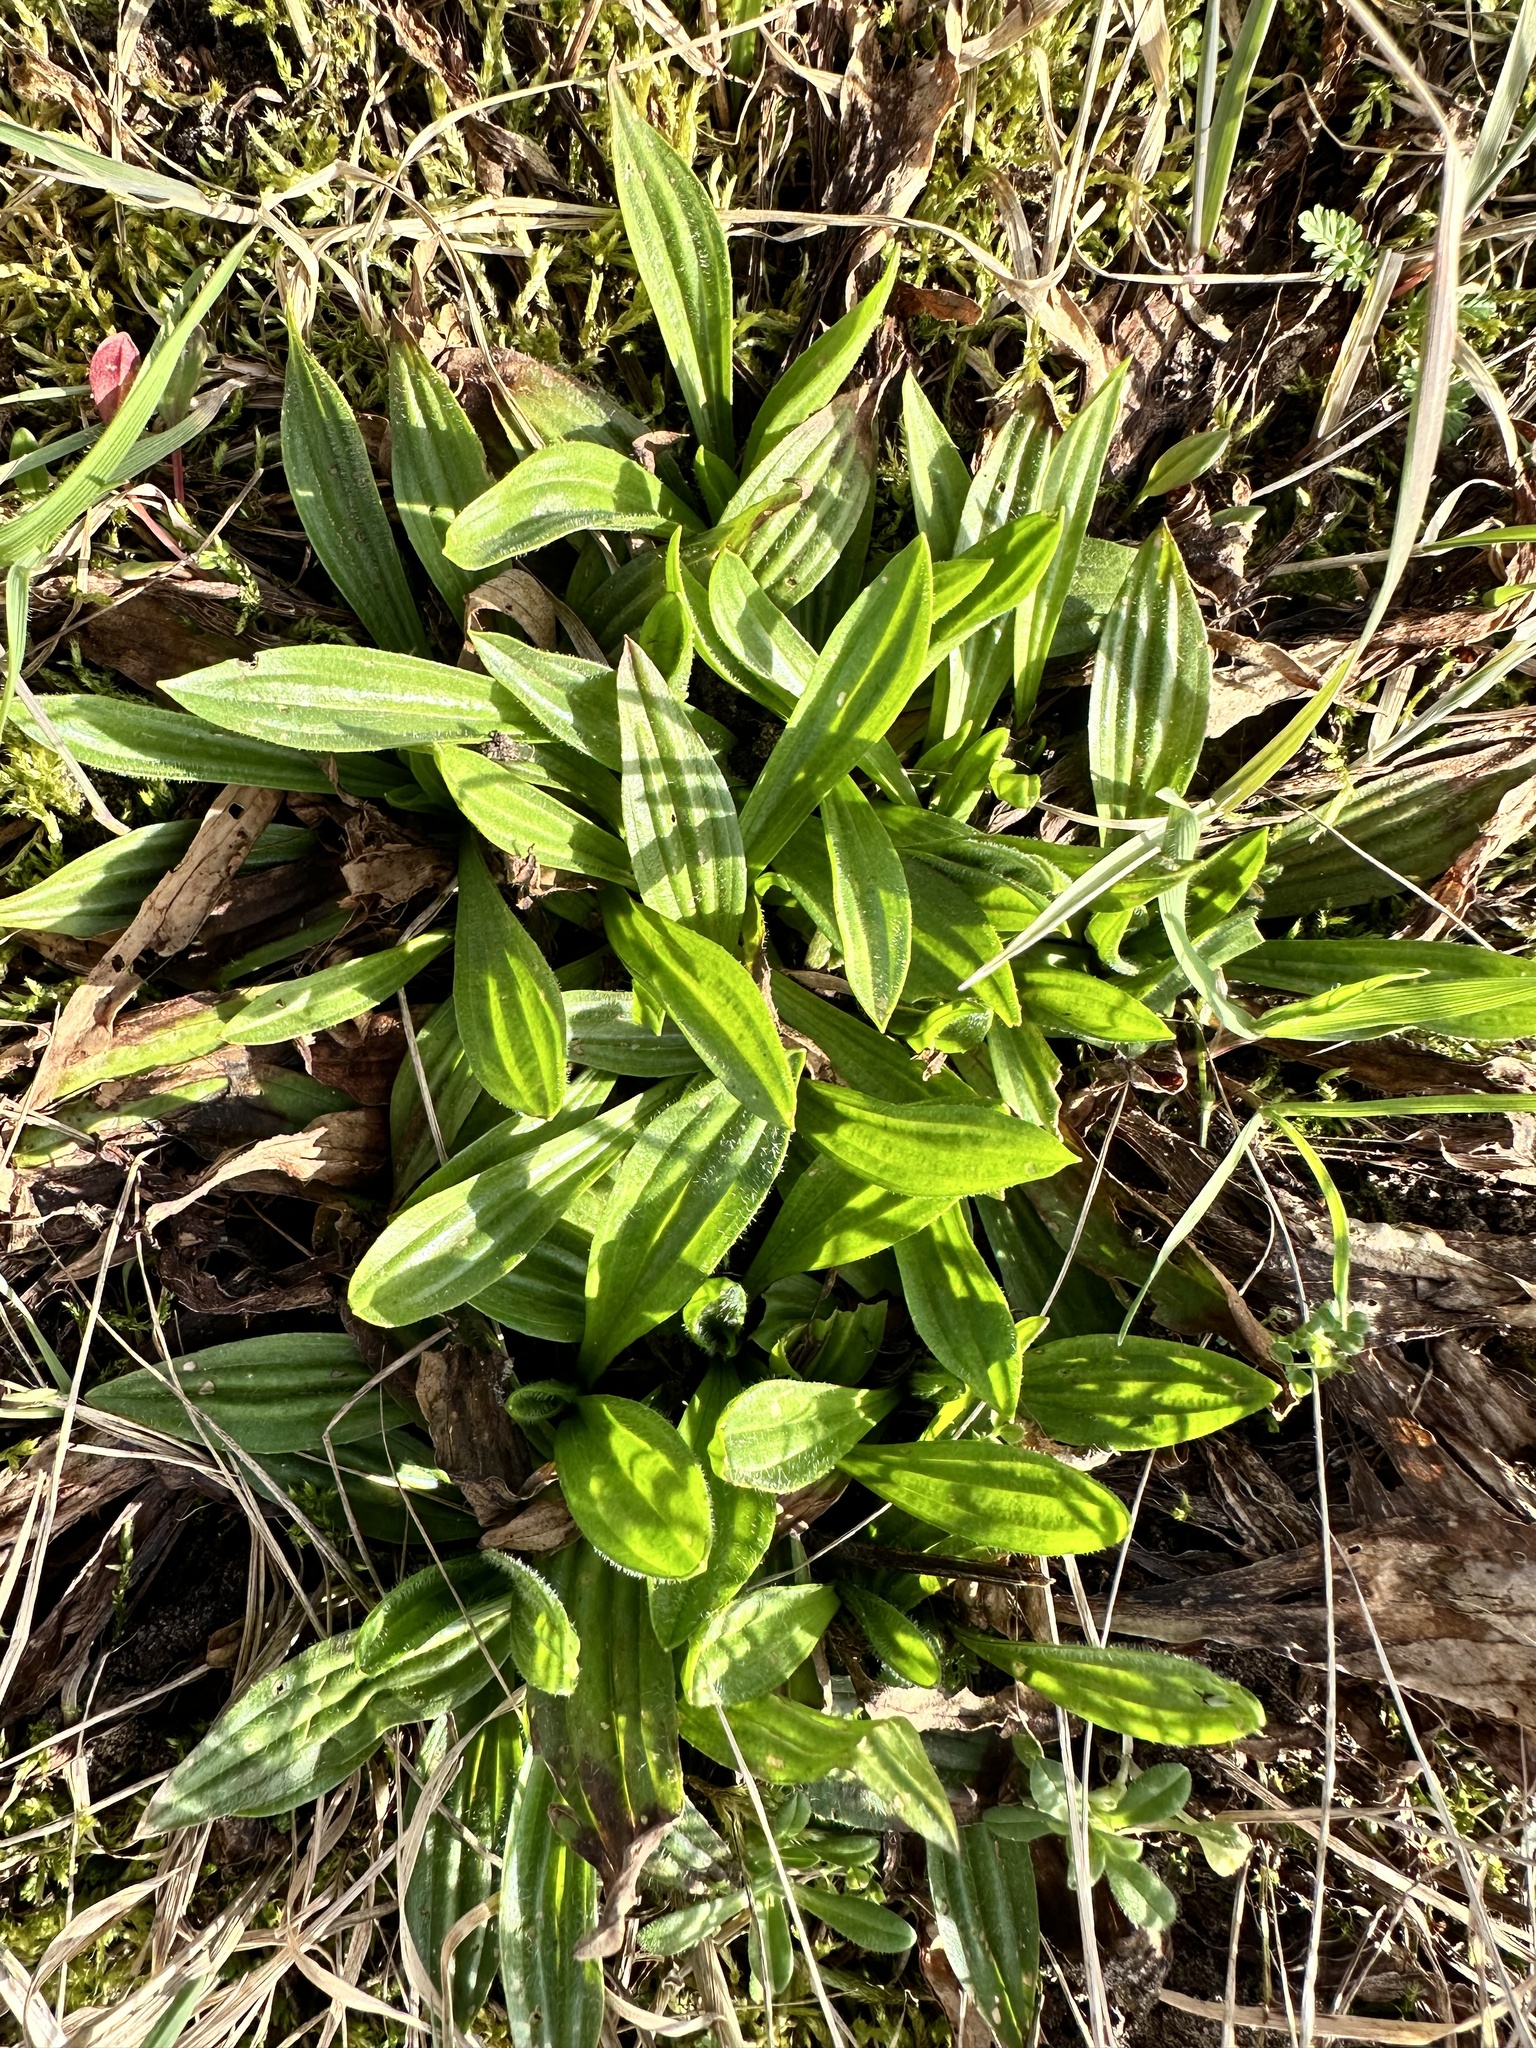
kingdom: Plantae
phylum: Tracheophyta
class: Magnoliopsida
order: Lamiales
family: Plantaginaceae
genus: Plantago
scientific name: Plantago lanceolata
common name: Ribwort plantain
